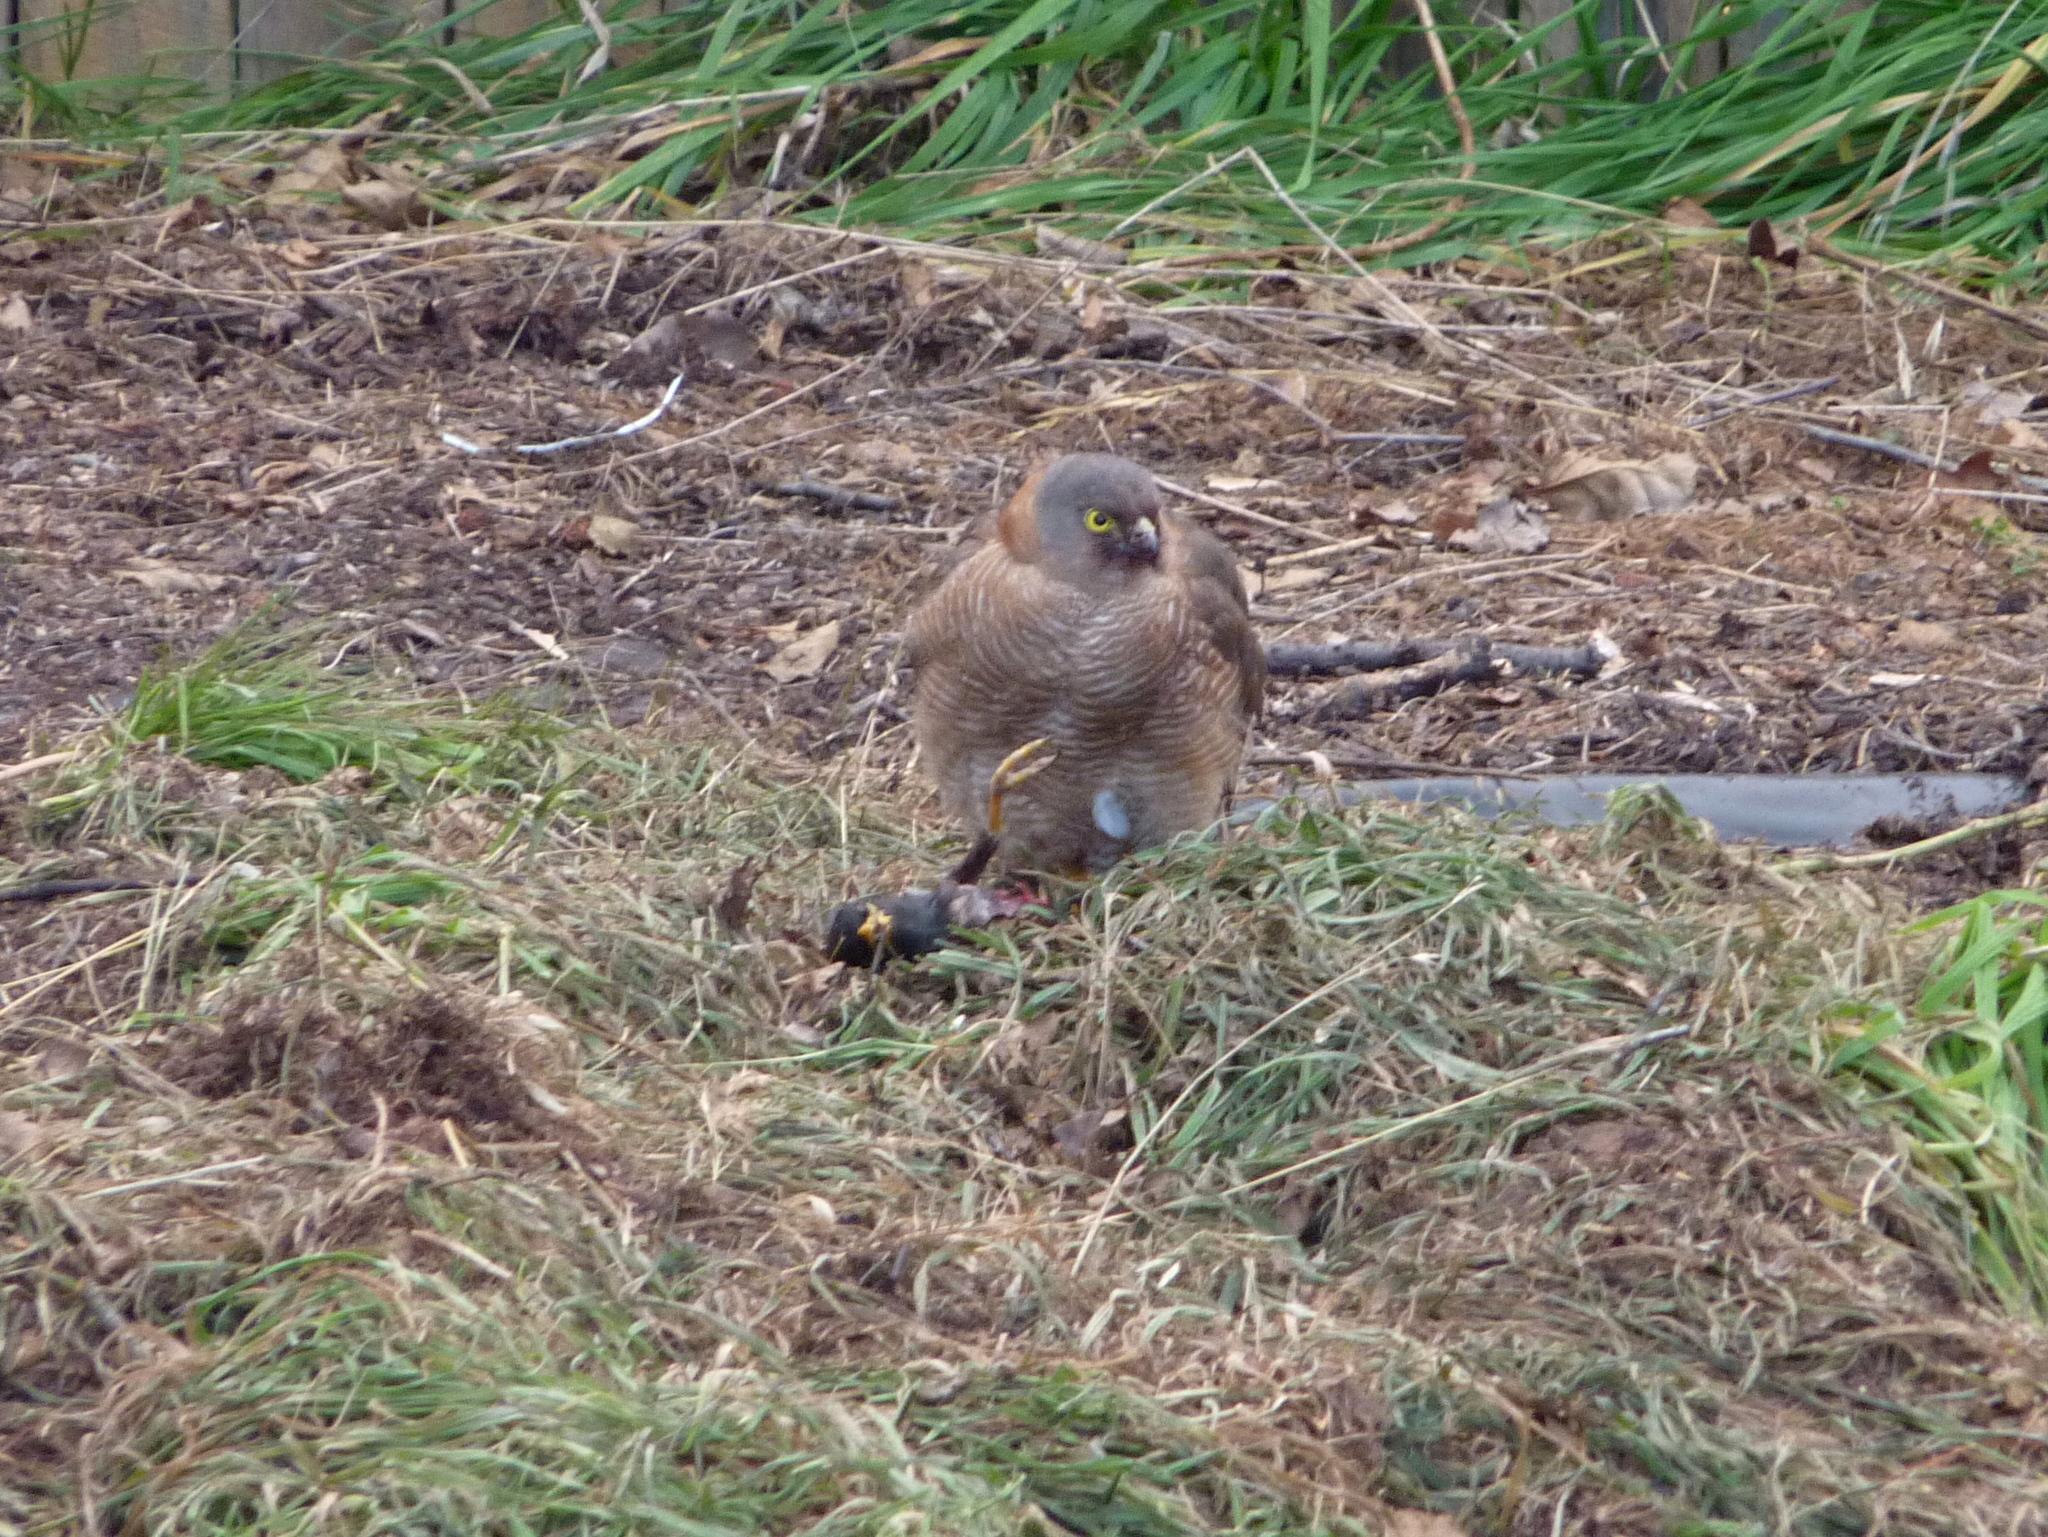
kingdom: Animalia
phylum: Chordata
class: Aves
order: Accipitriformes
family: Accipitridae
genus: Accipiter
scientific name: Accipiter cirrocephalus
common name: Collared sparrowhawk
